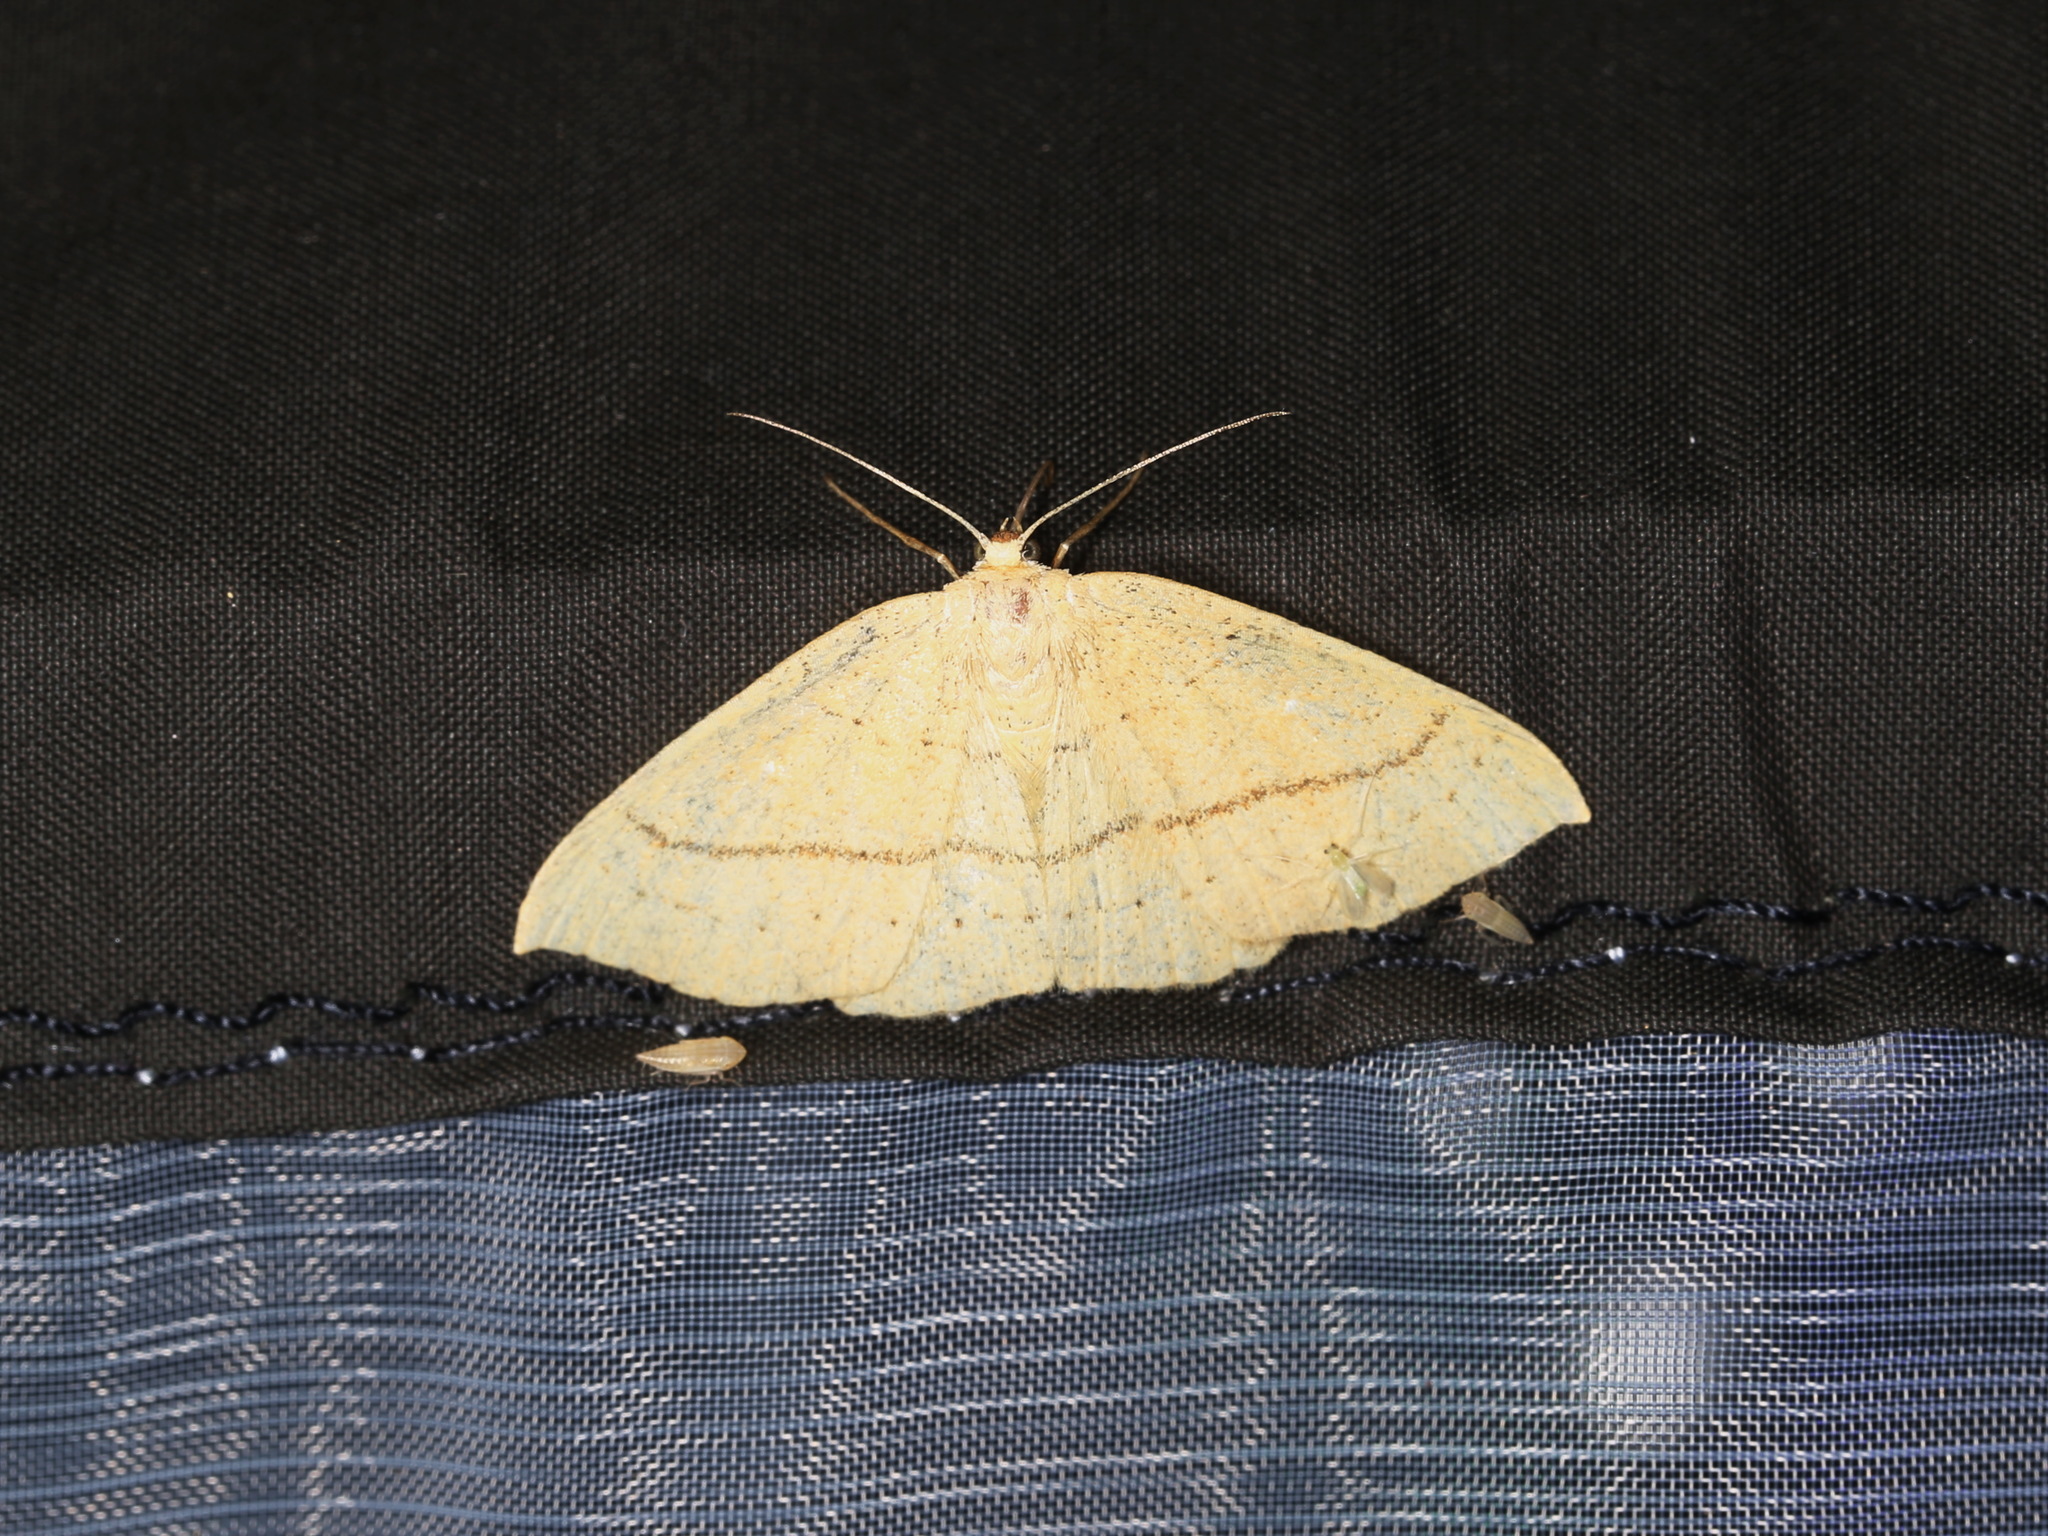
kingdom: Animalia
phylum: Arthropoda
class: Insecta
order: Lepidoptera
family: Geometridae
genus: Cyclophora
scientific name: Cyclophora linearia
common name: Clay triple-lines
